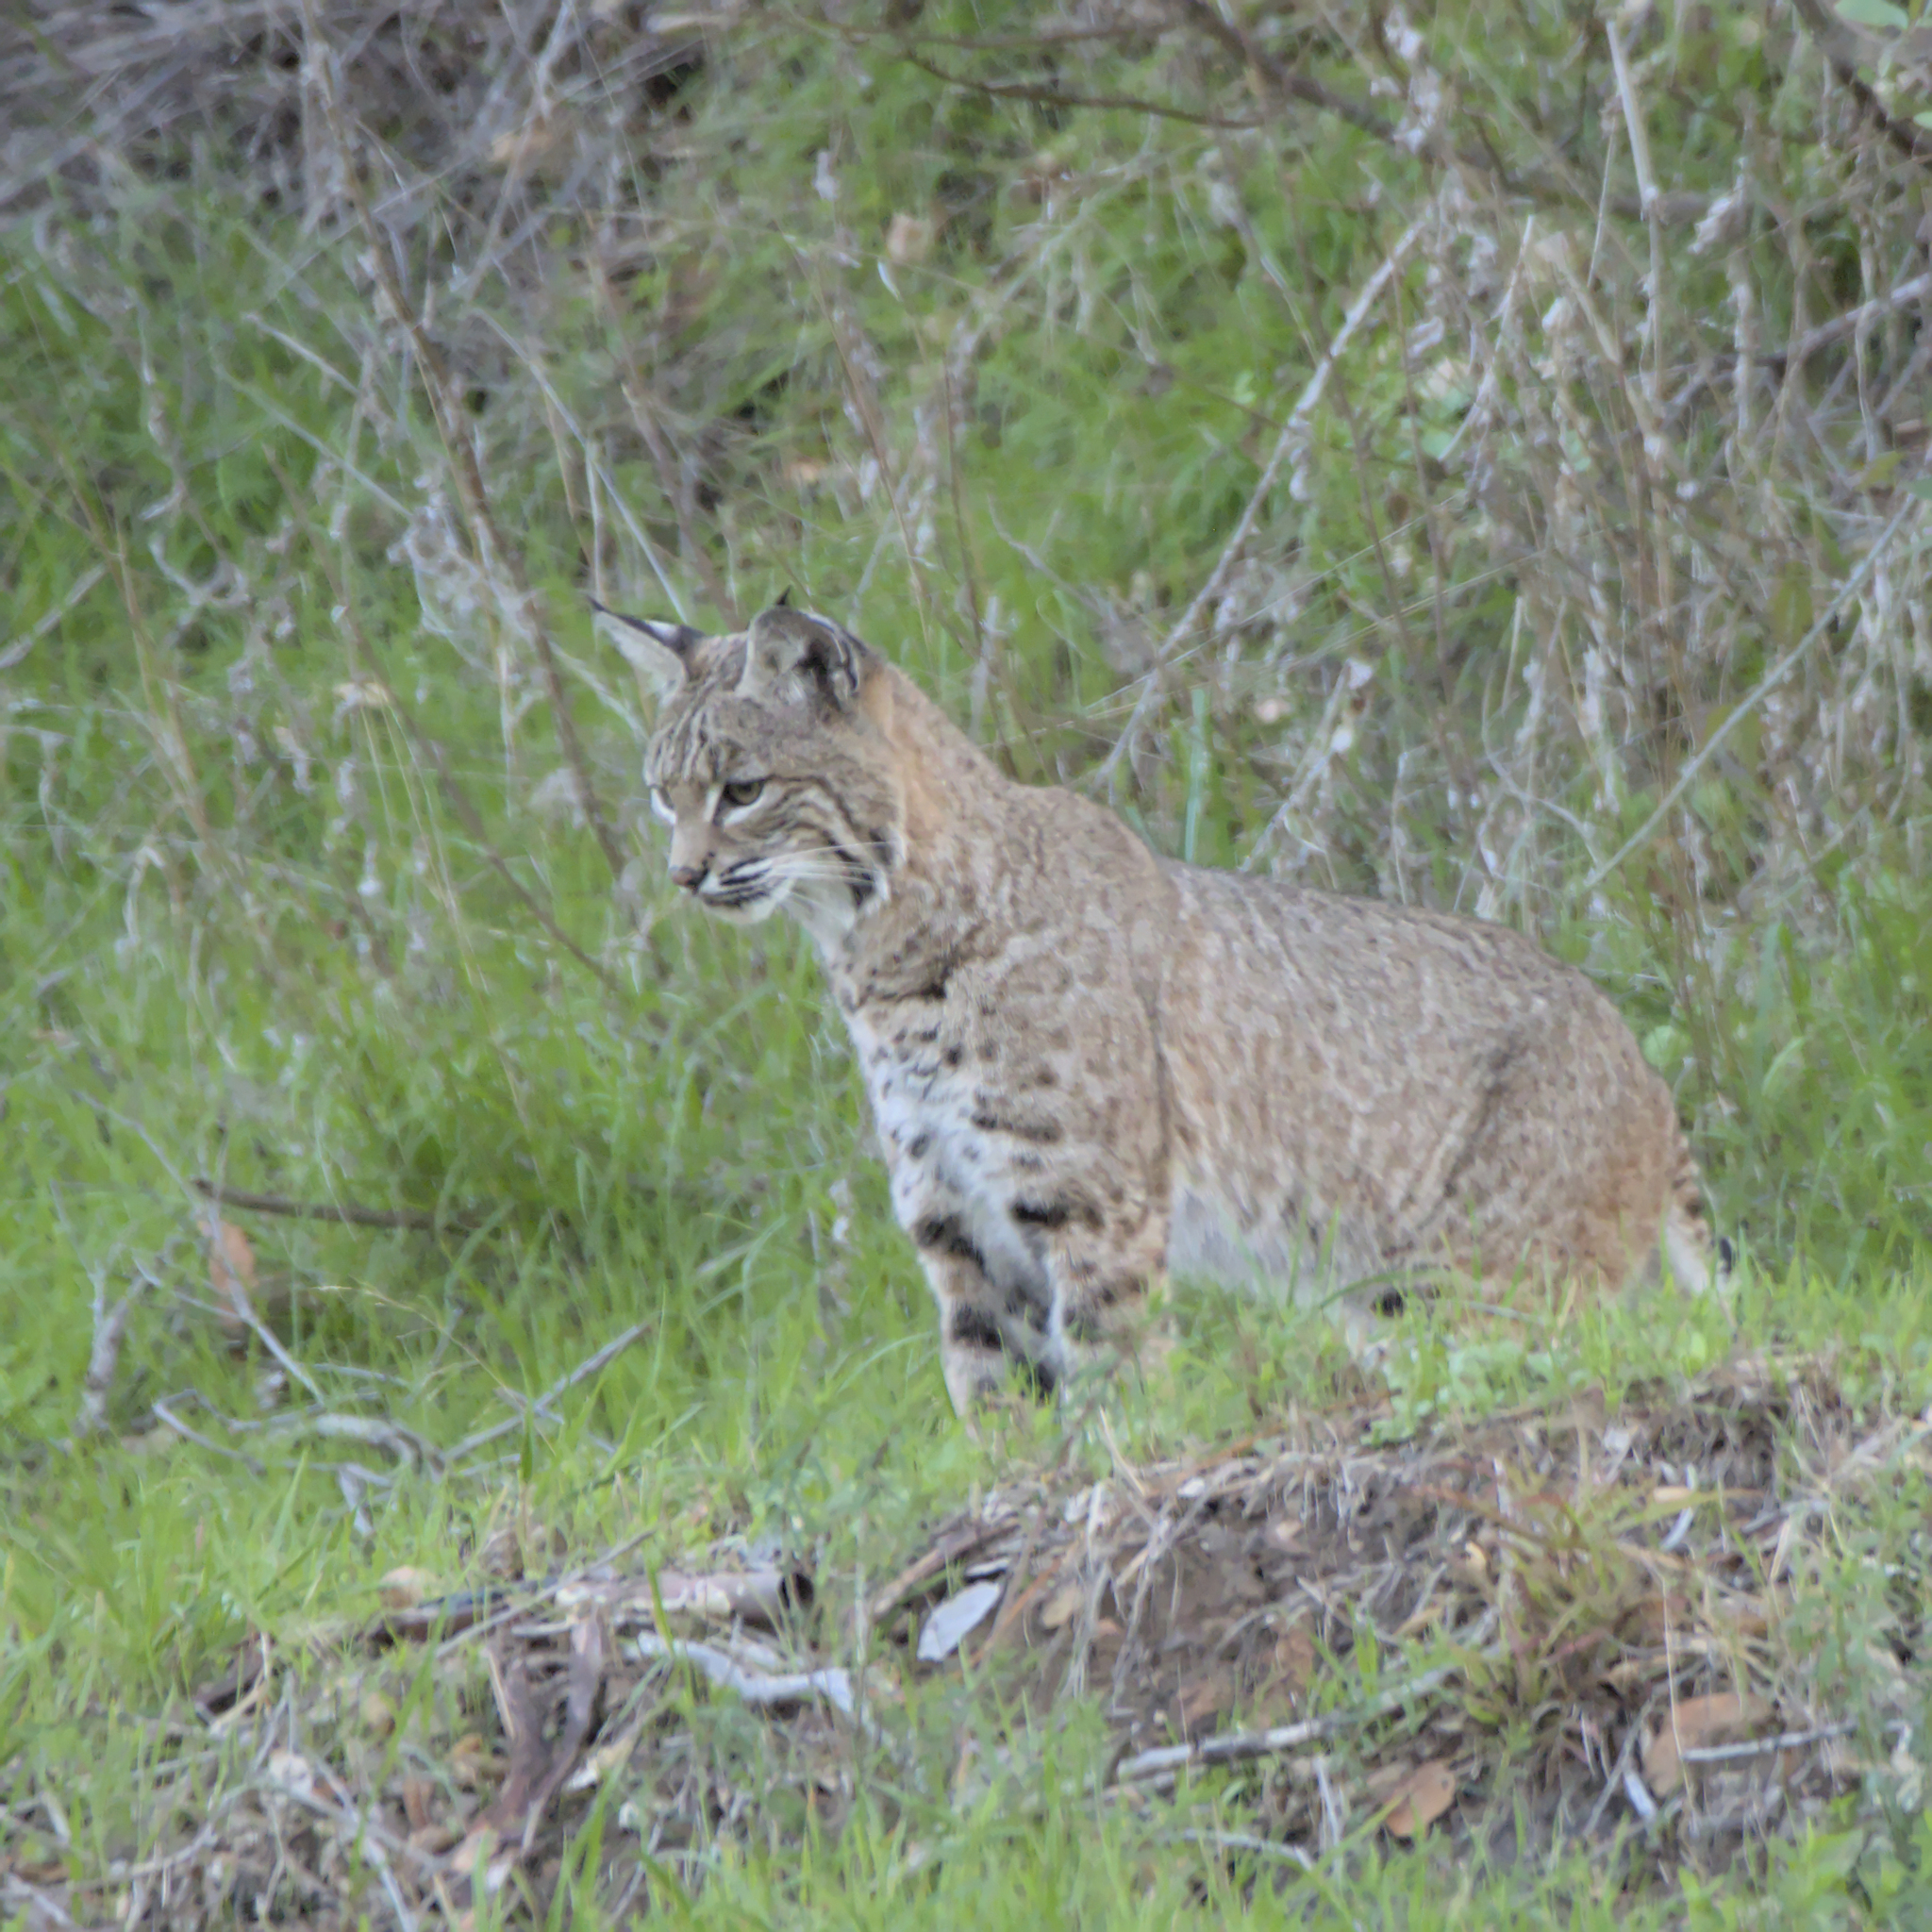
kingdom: Animalia
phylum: Chordata
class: Mammalia
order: Carnivora
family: Felidae
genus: Lynx
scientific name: Lynx rufus
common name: Bobcat
